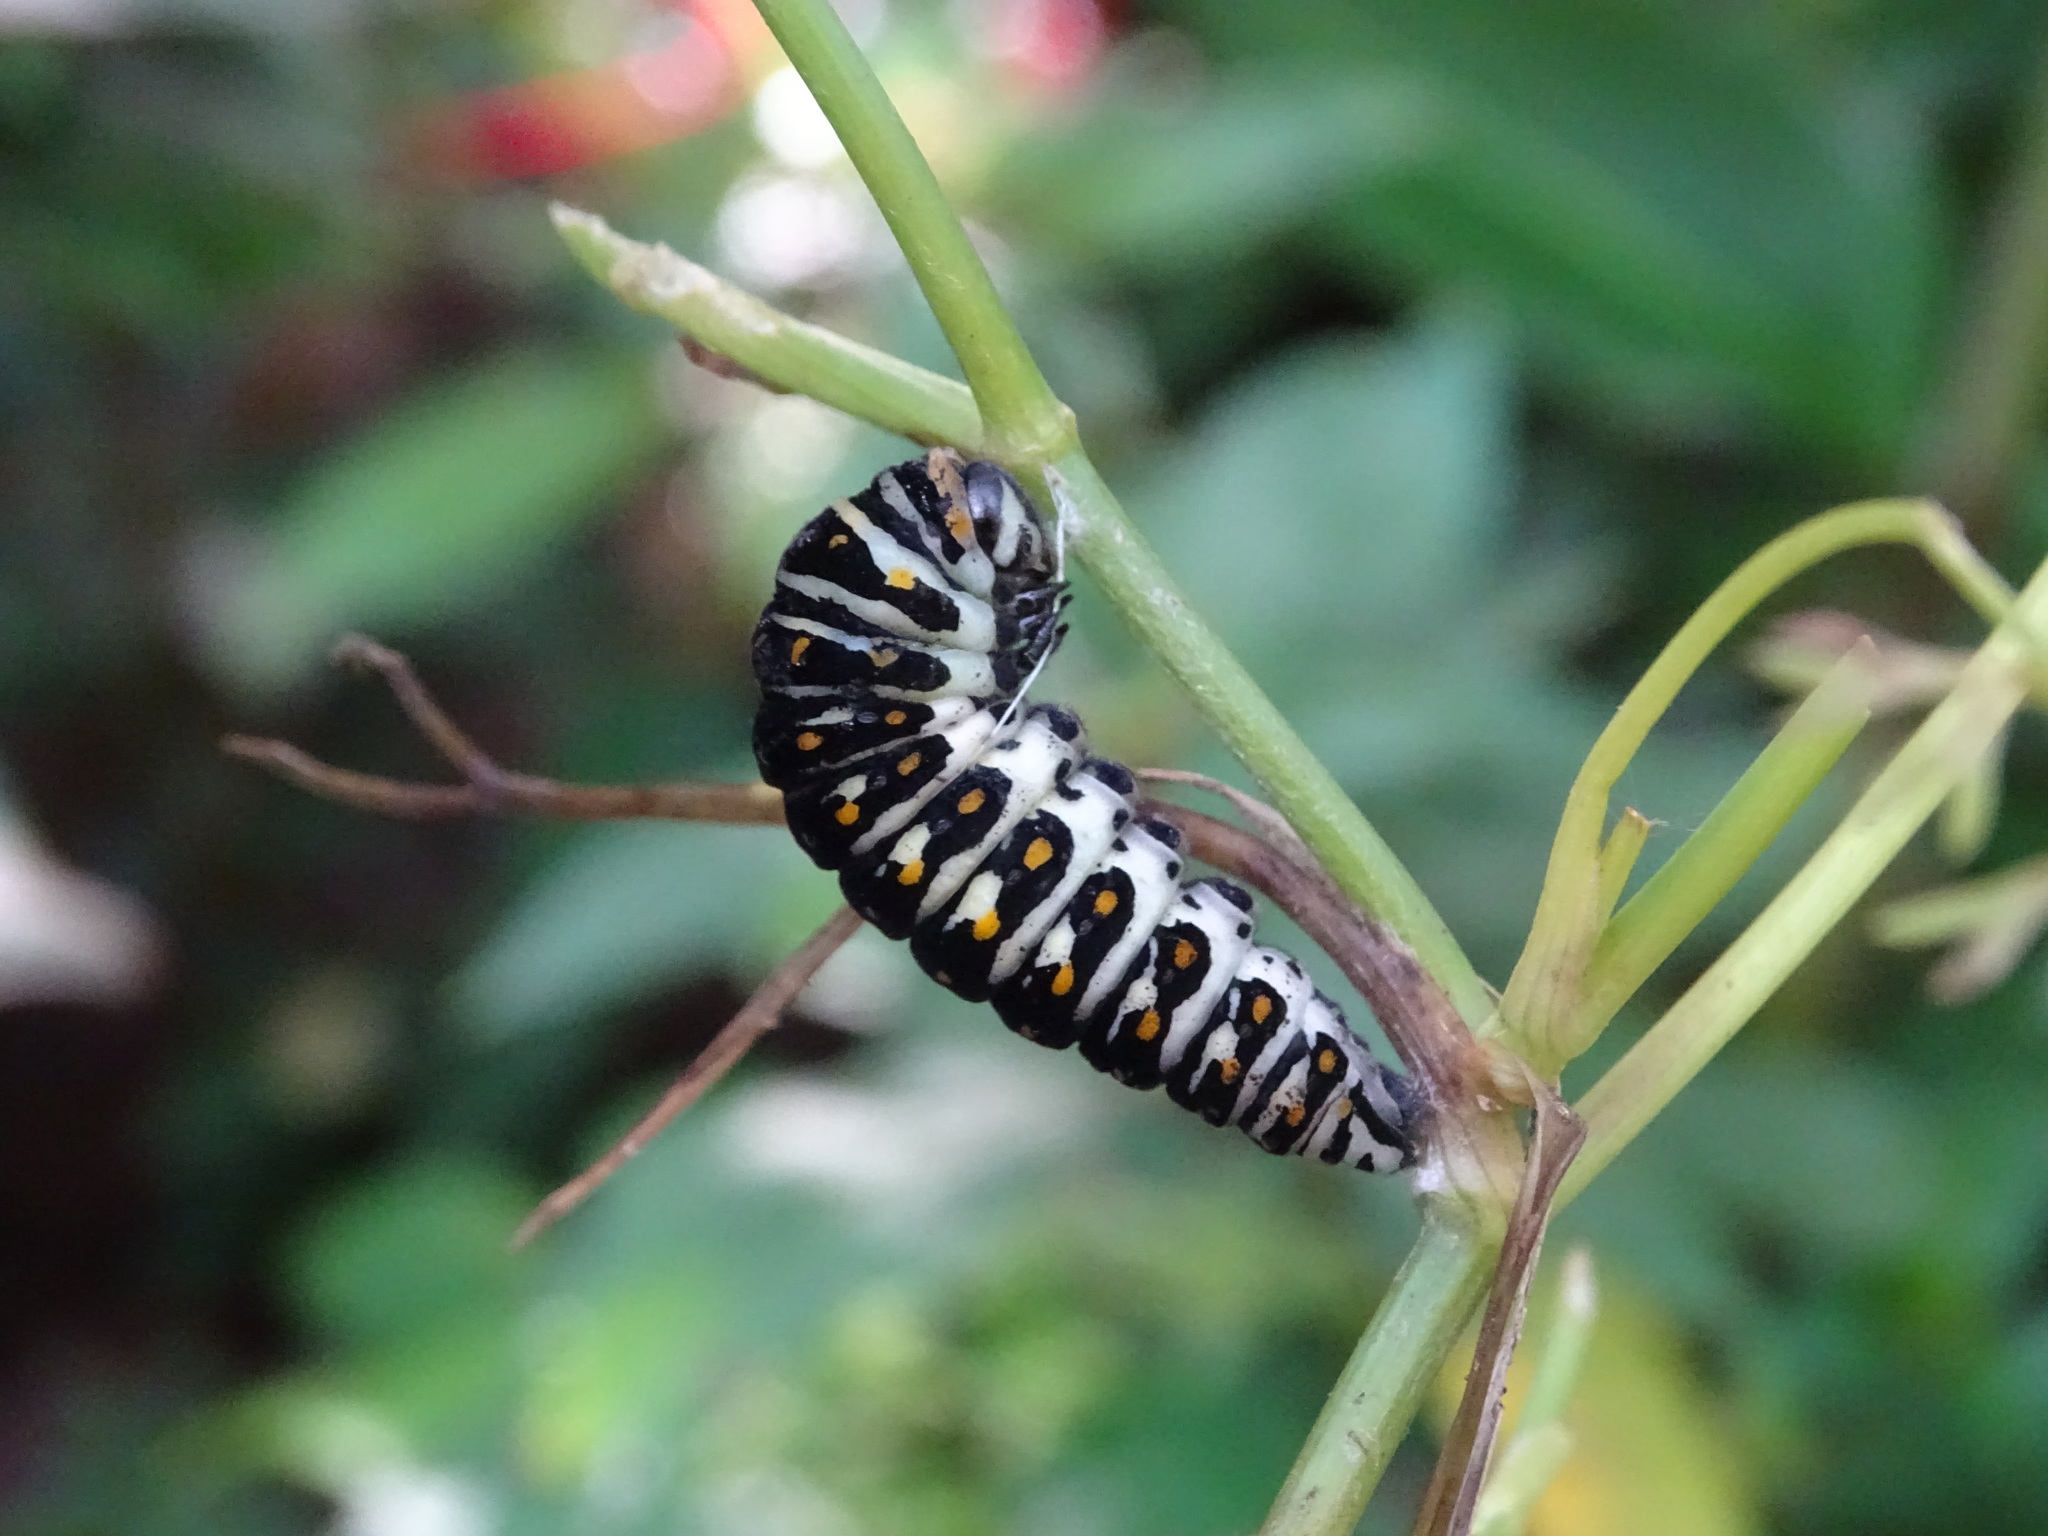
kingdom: Animalia
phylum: Arthropoda
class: Insecta
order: Lepidoptera
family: Papilionidae
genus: Papilio
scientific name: Papilio polyxenes
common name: Black swallowtail
